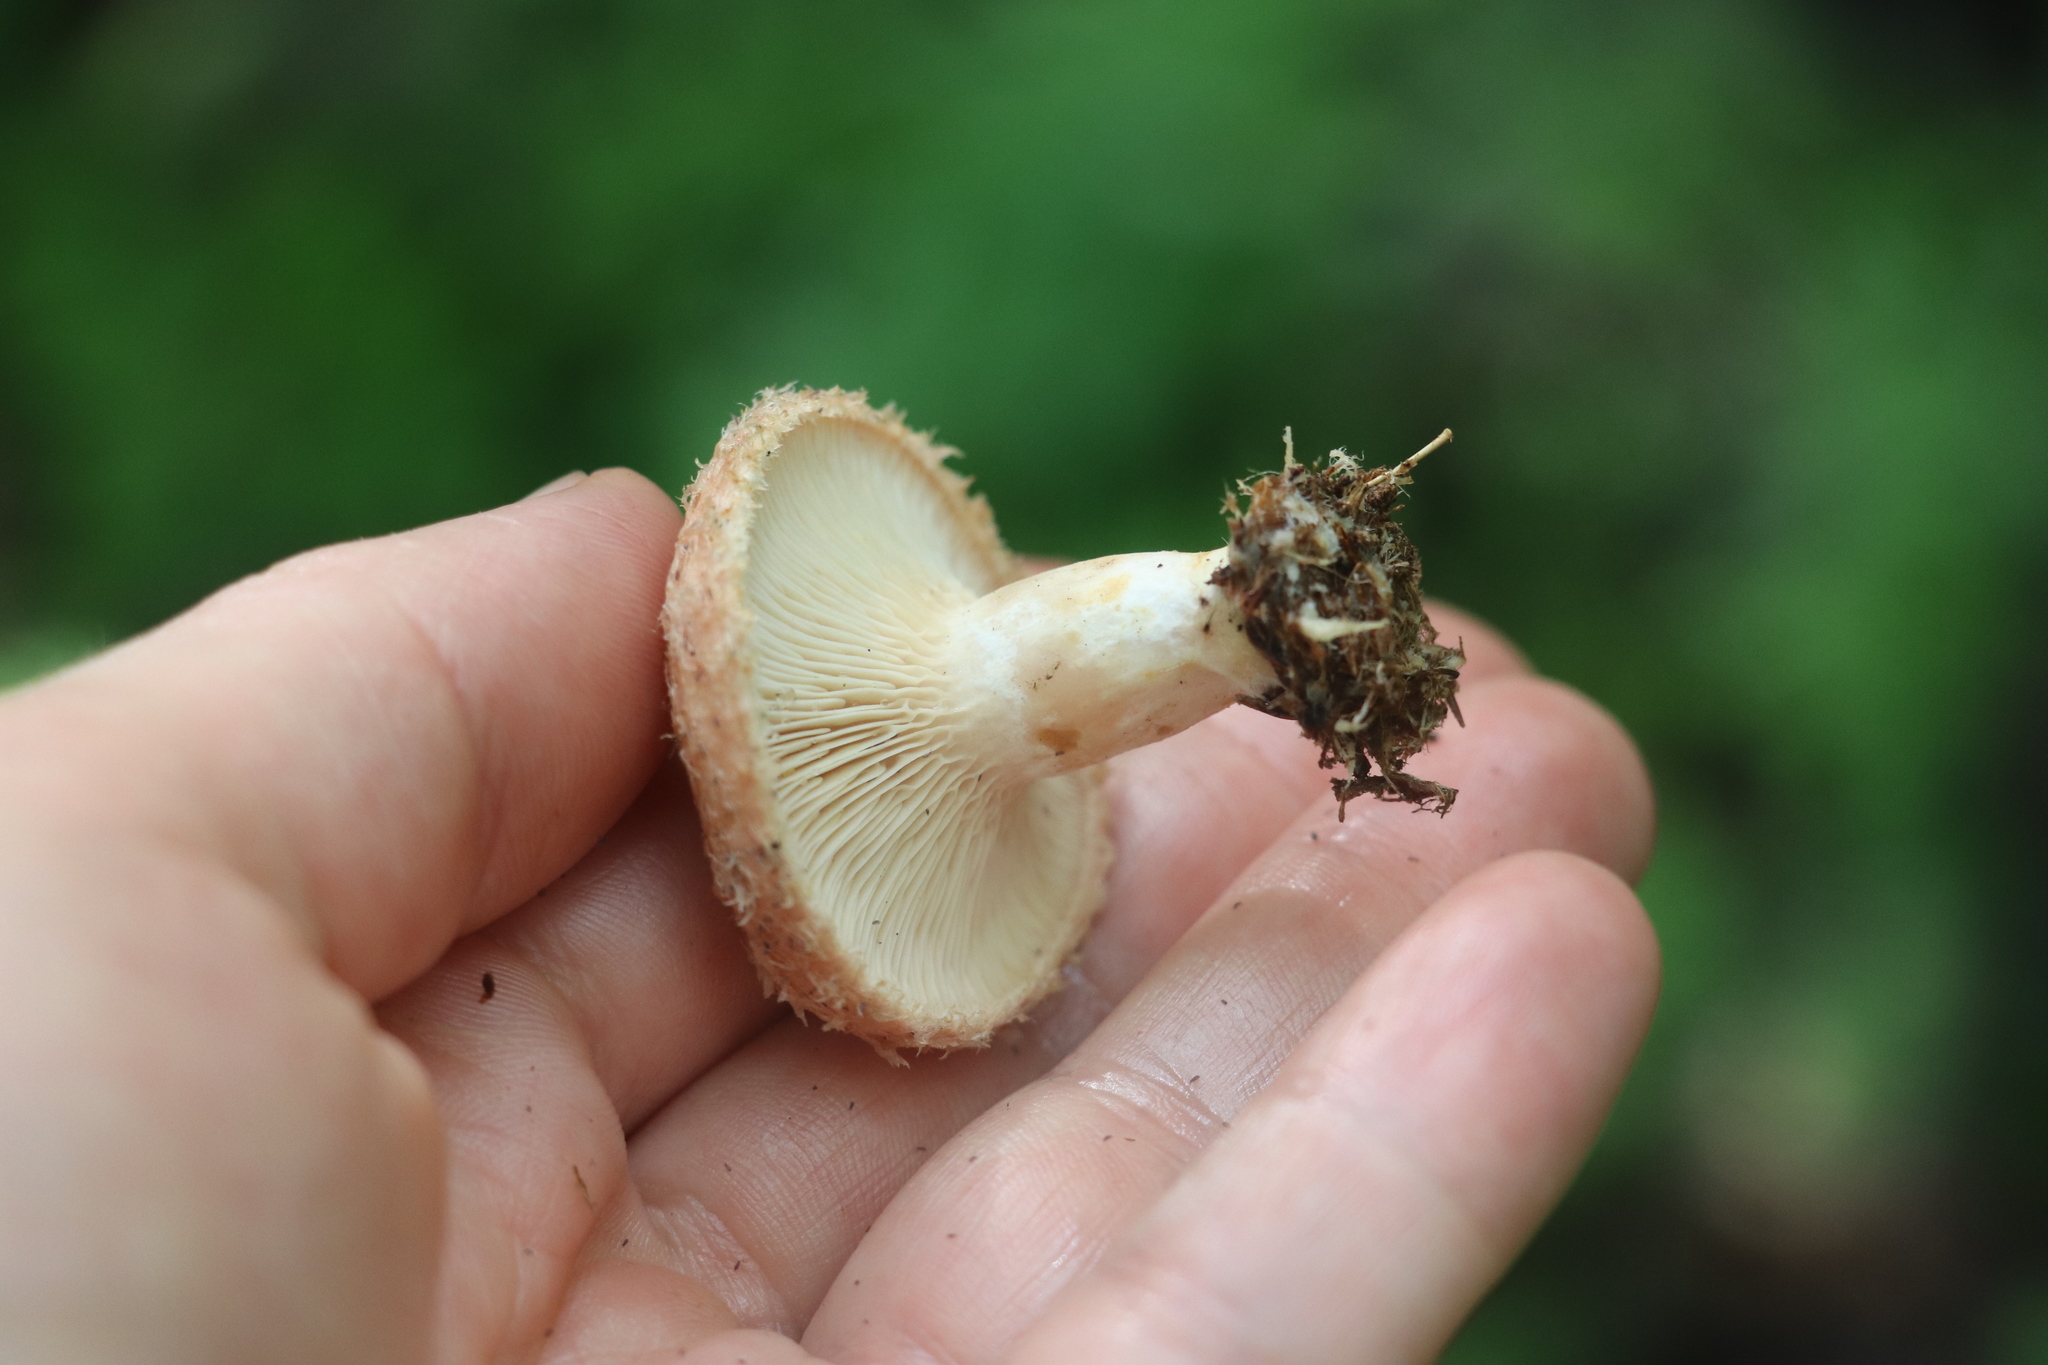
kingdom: Fungi
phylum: Basidiomycota
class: Agaricomycetes
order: Russulales
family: Russulaceae
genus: Lactarius
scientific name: Lactarius torminosus
